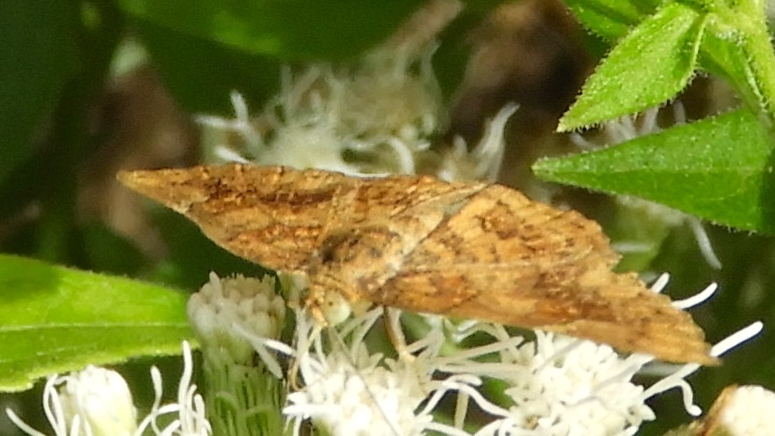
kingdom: Animalia
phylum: Arthropoda
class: Insecta
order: Lepidoptera
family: Riodinidae
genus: Curvie
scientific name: Curvie emesia
